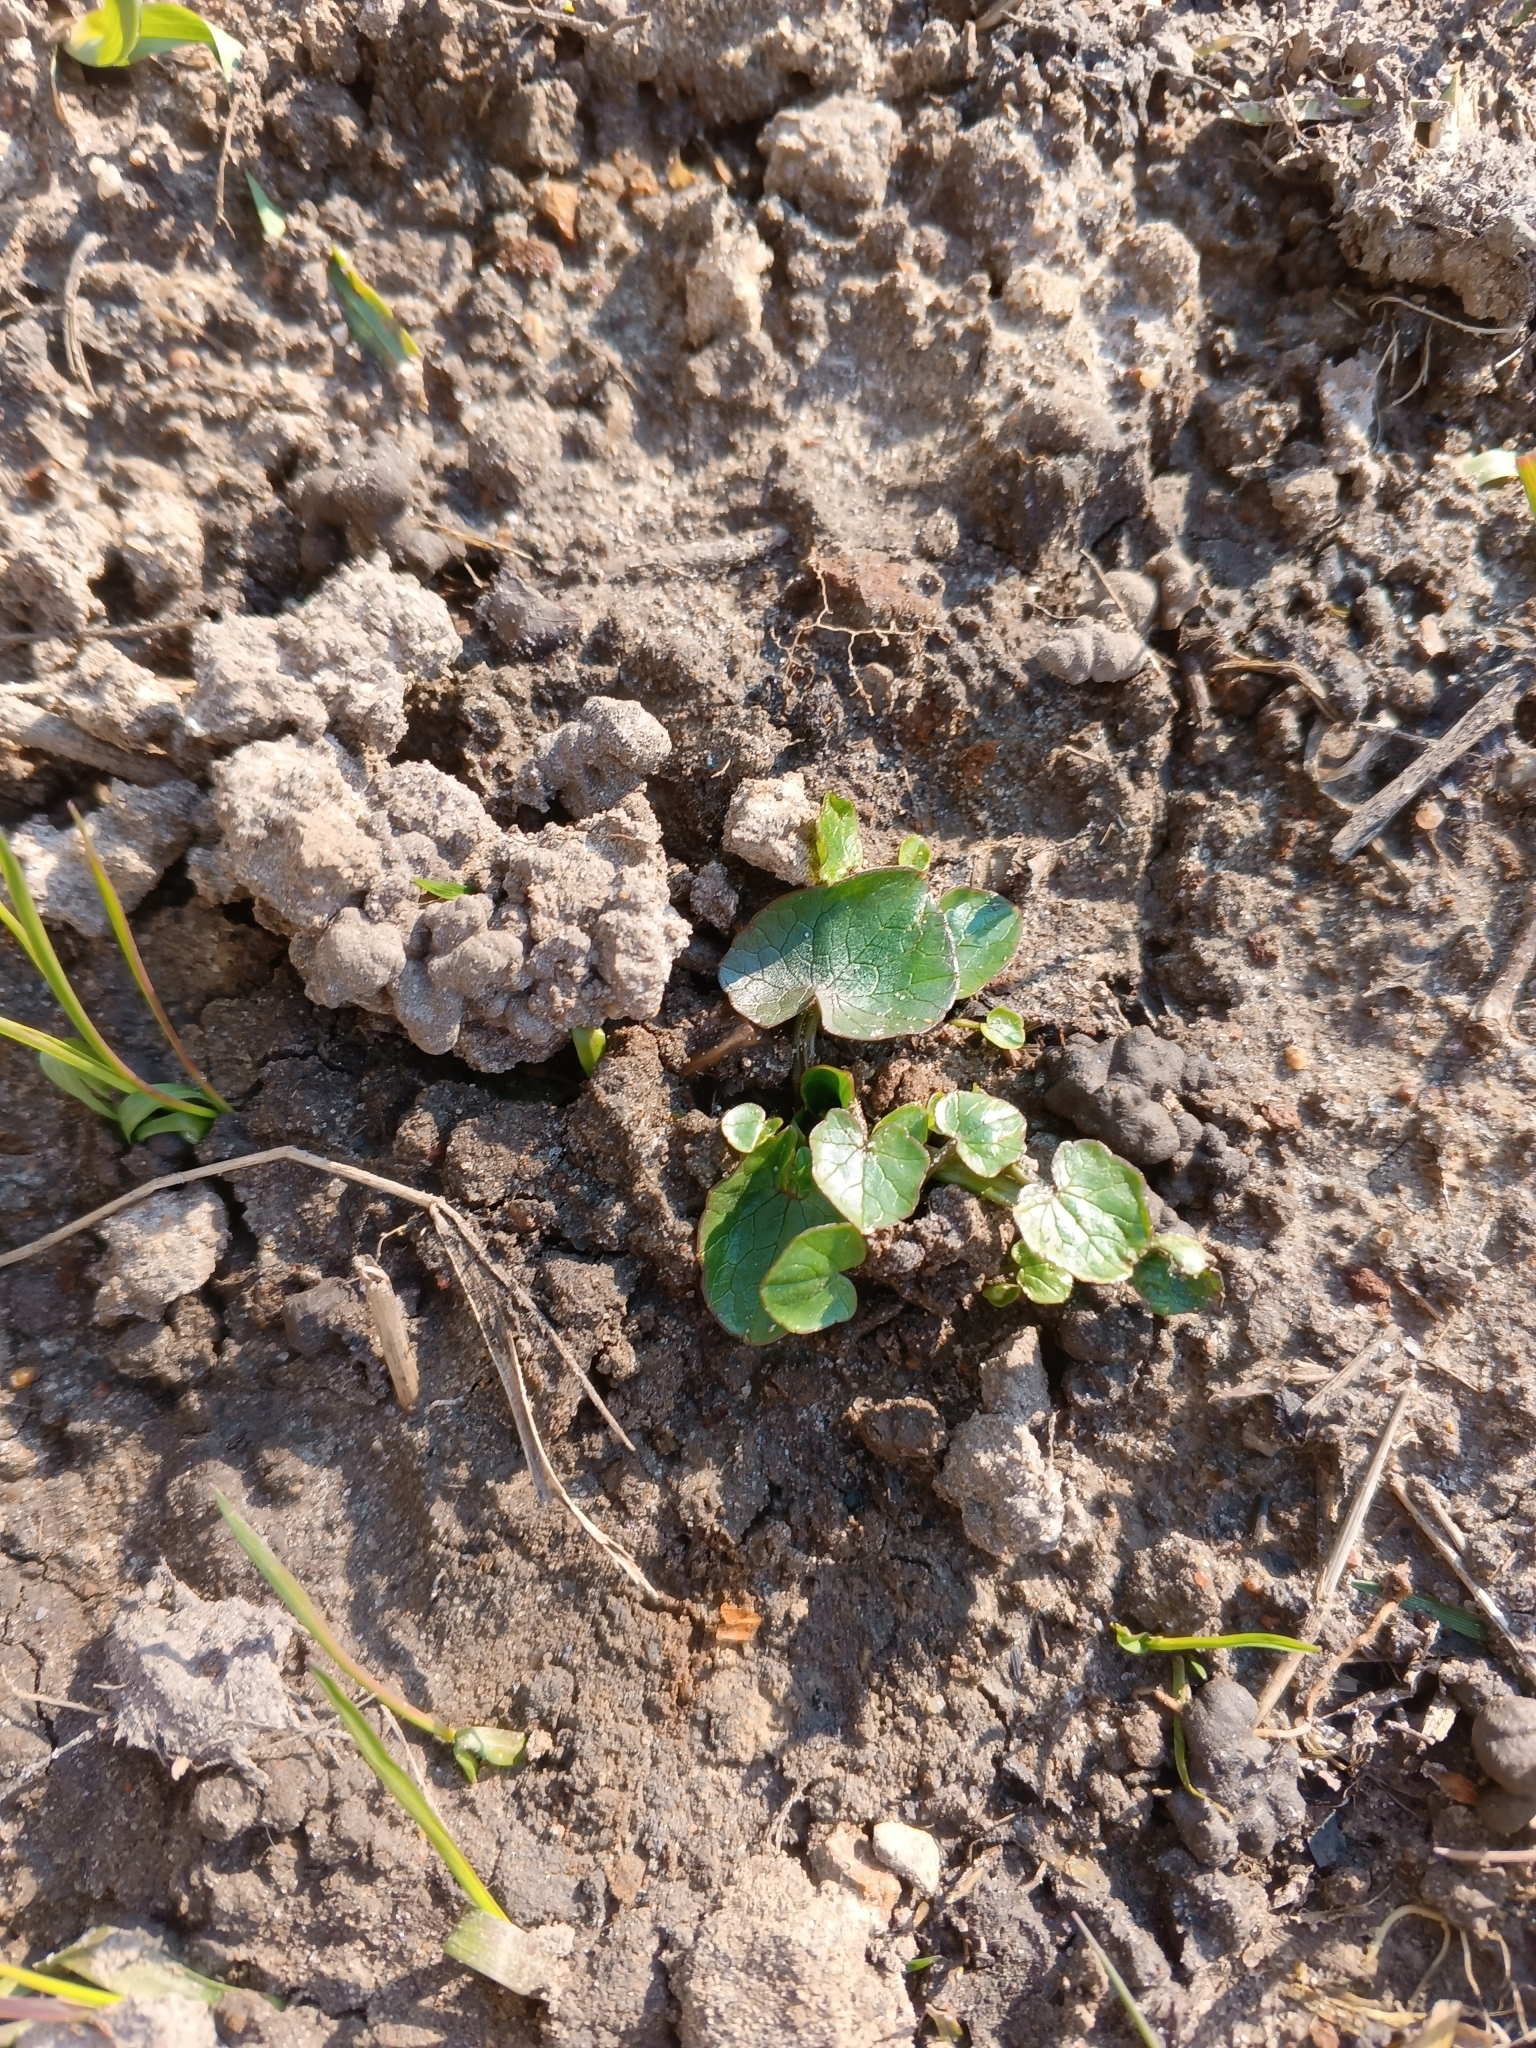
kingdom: Plantae
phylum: Tracheophyta
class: Magnoliopsida
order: Ranunculales
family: Ranunculaceae
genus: Ficaria
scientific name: Ficaria verna
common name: Lesser celandine
